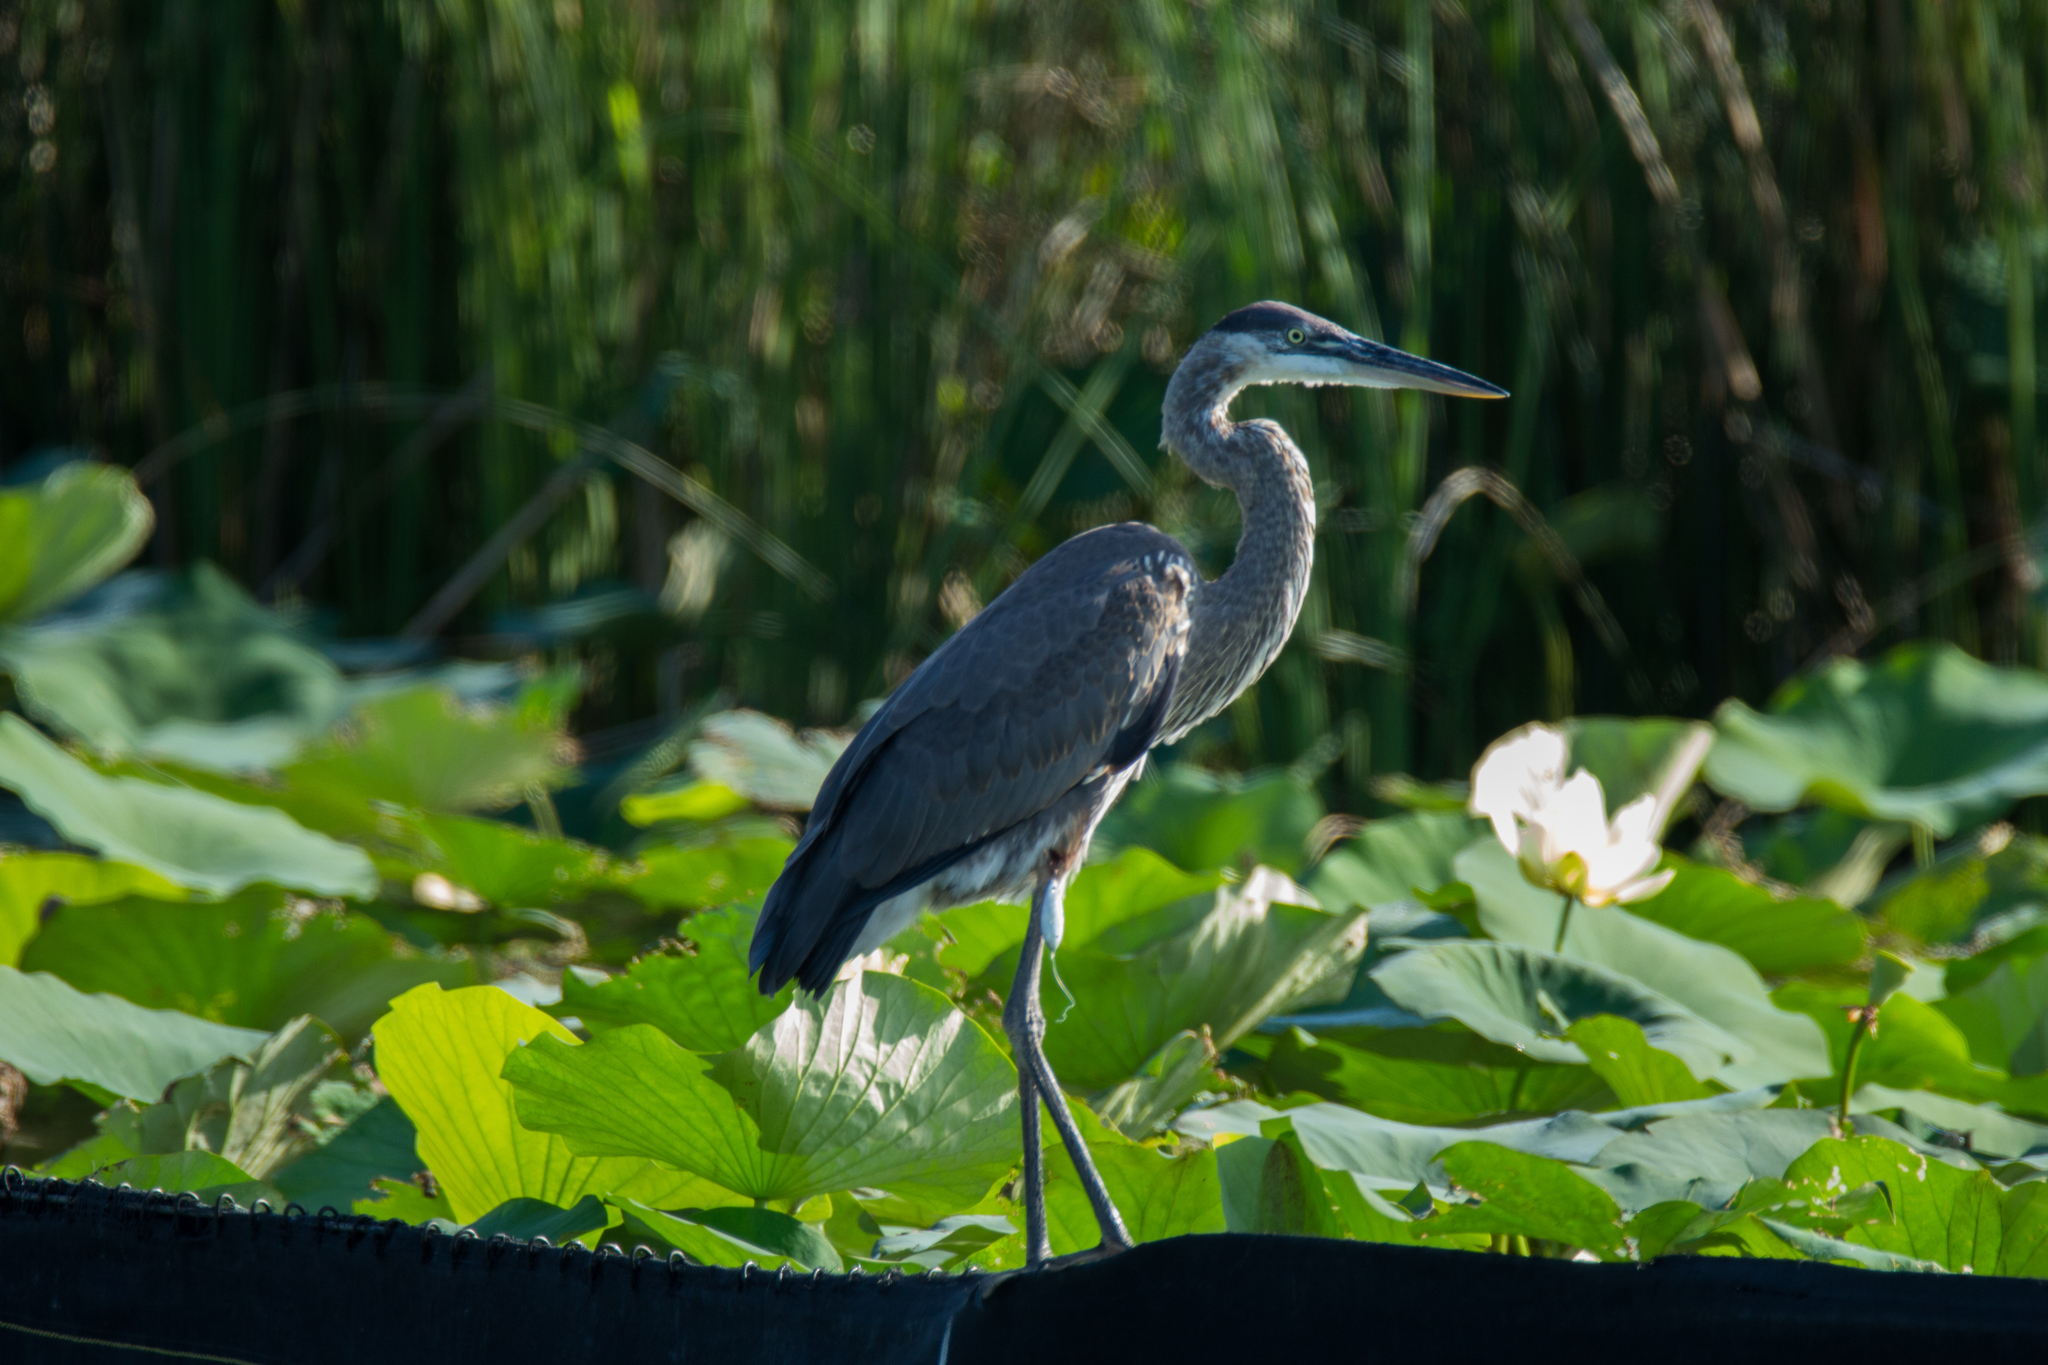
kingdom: Animalia
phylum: Chordata
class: Aves
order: Pelecaniformes
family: Ardeidae
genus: Ardea
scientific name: Ardea herodias
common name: Great blue heron
